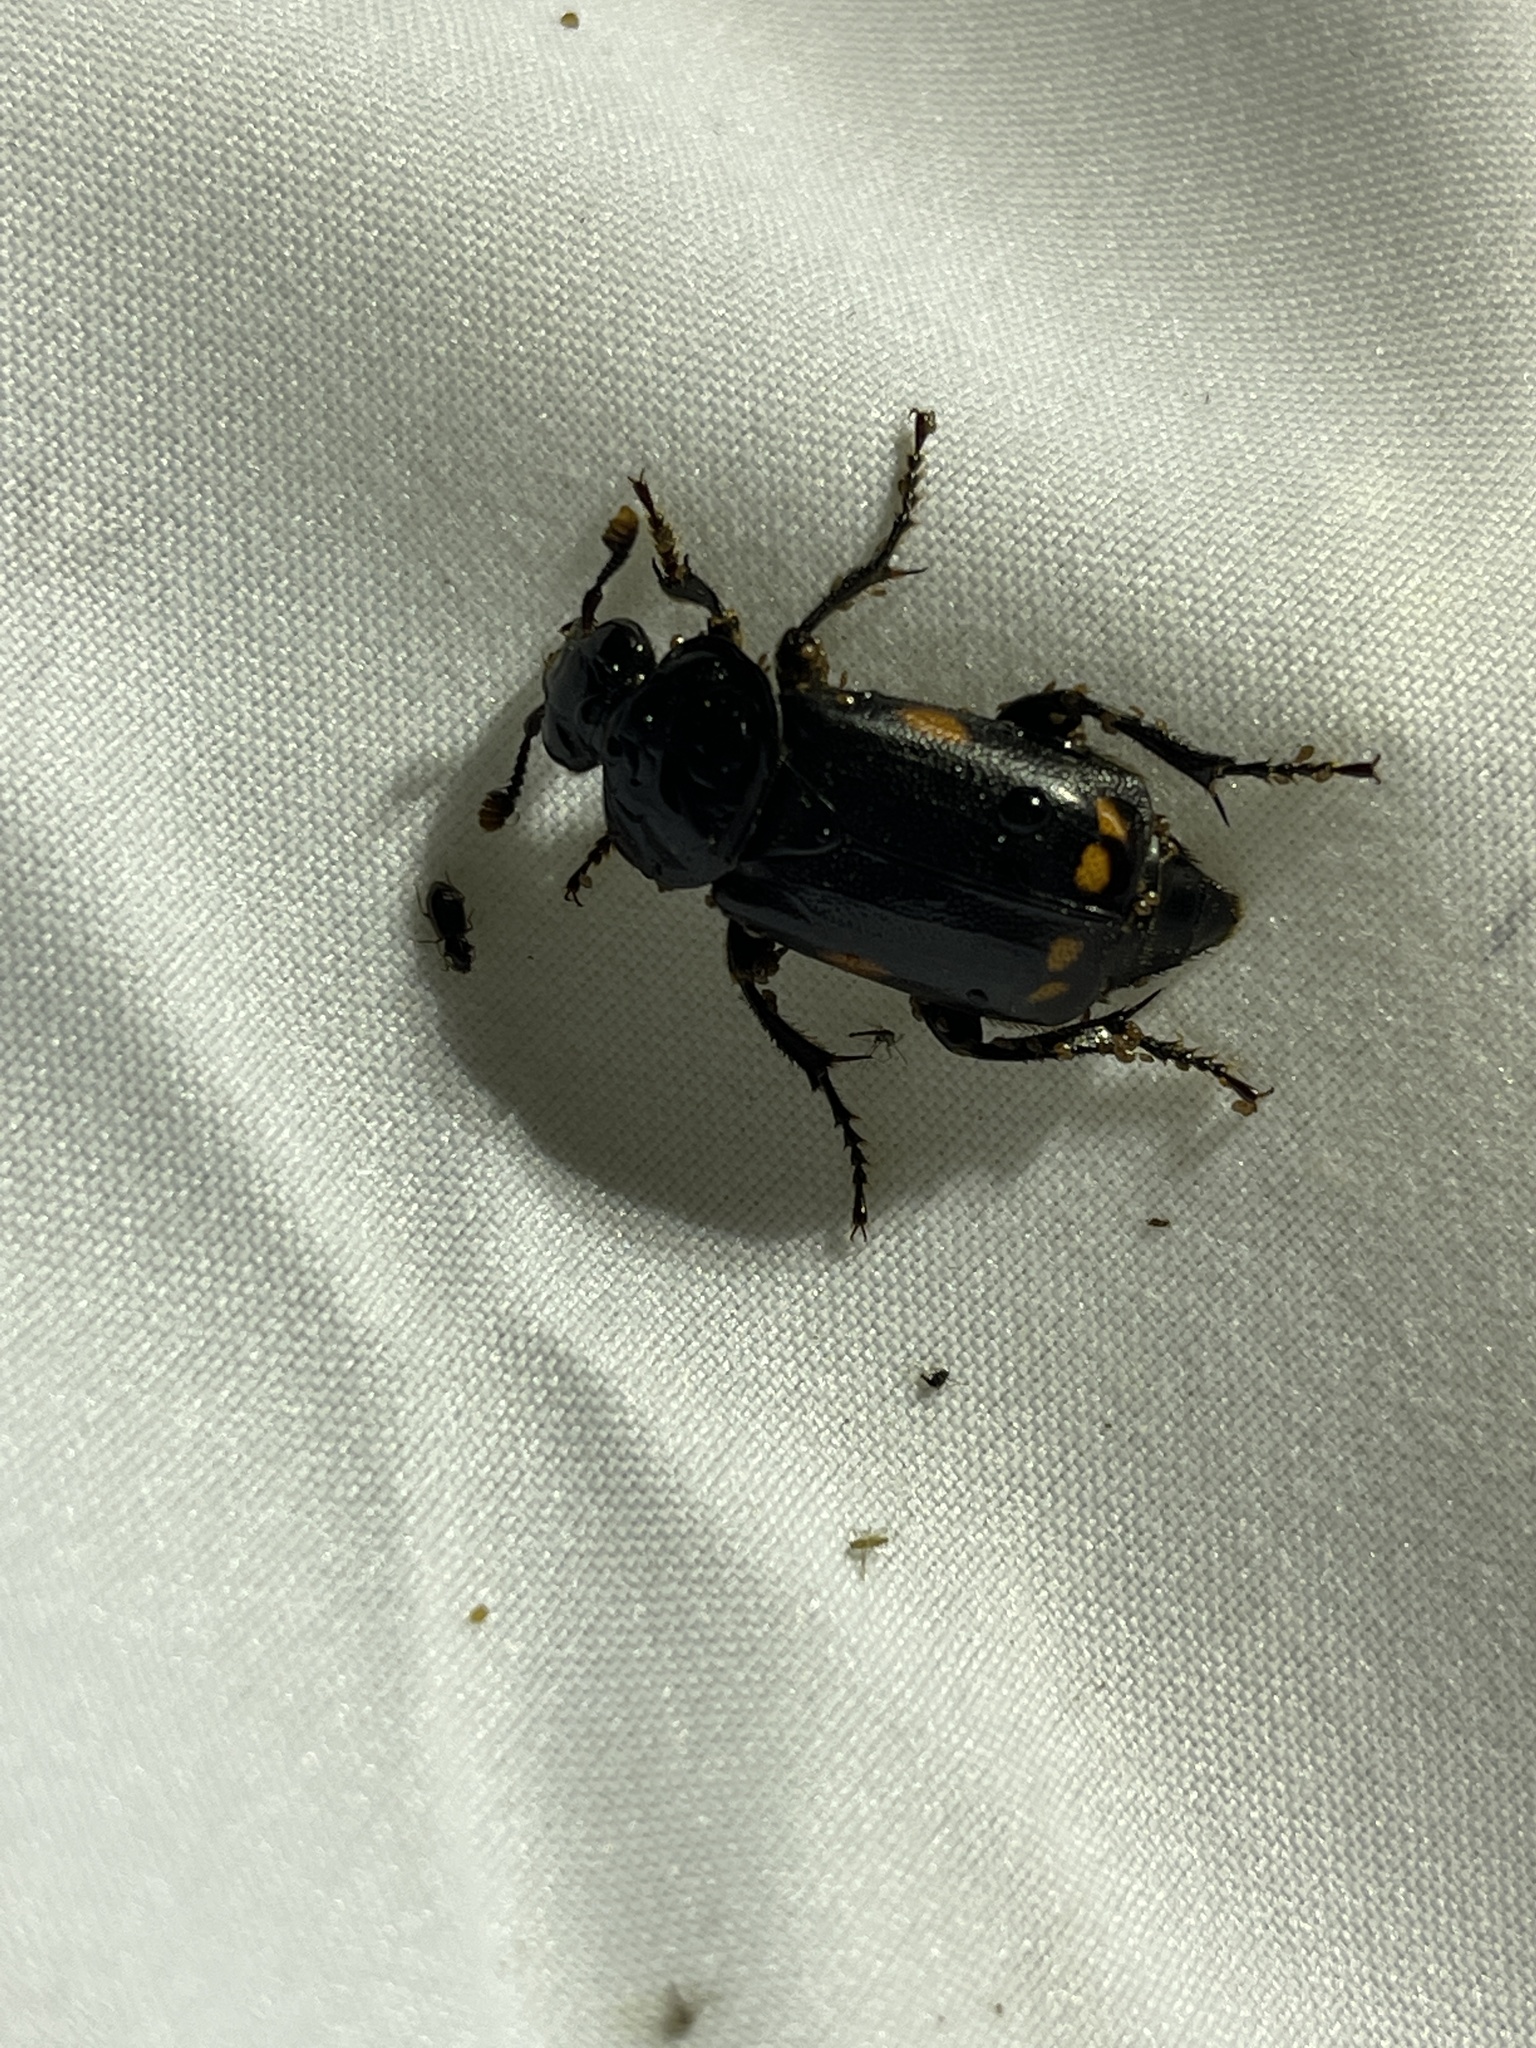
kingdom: Animalia
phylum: Arthropoda
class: Insecta
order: Coleoptera
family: Staphylinidae
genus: Nicrophorus
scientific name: Nicrophorus pustulatus
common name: Pustulated carrion beetle
